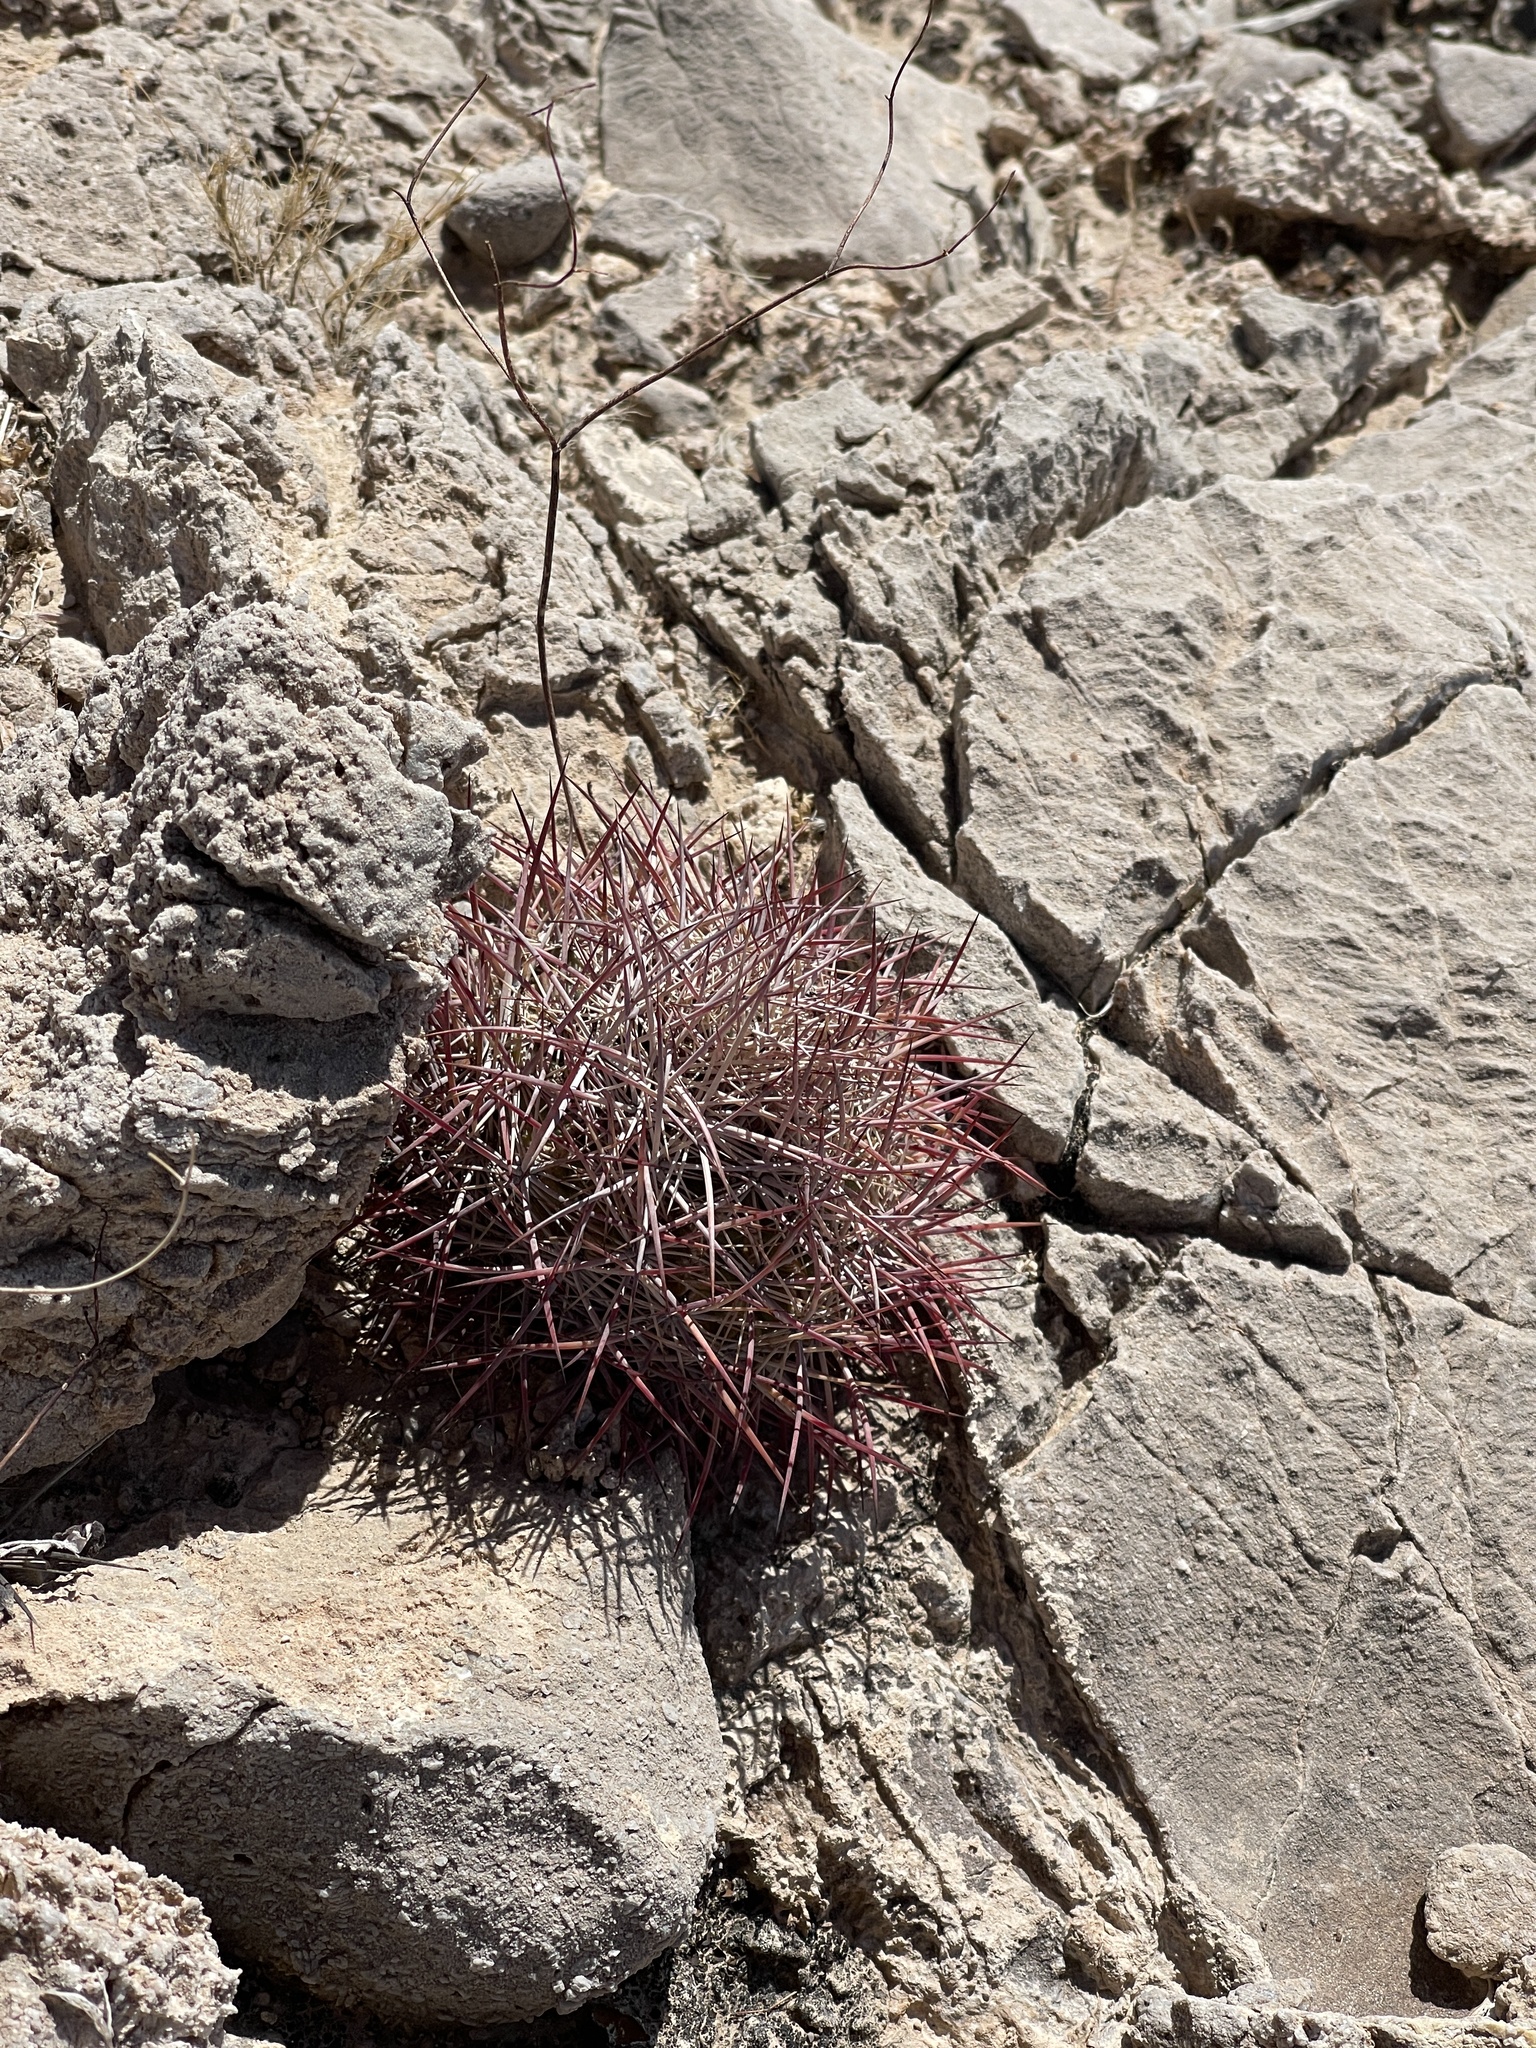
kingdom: Plantae
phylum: Tracheophyta
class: Magnoliopsida
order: Caryophyllales
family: Cactaceae
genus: Sclerocactus
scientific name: Sclerocactus johnsonii
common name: Eight-spine fishhook cactus
